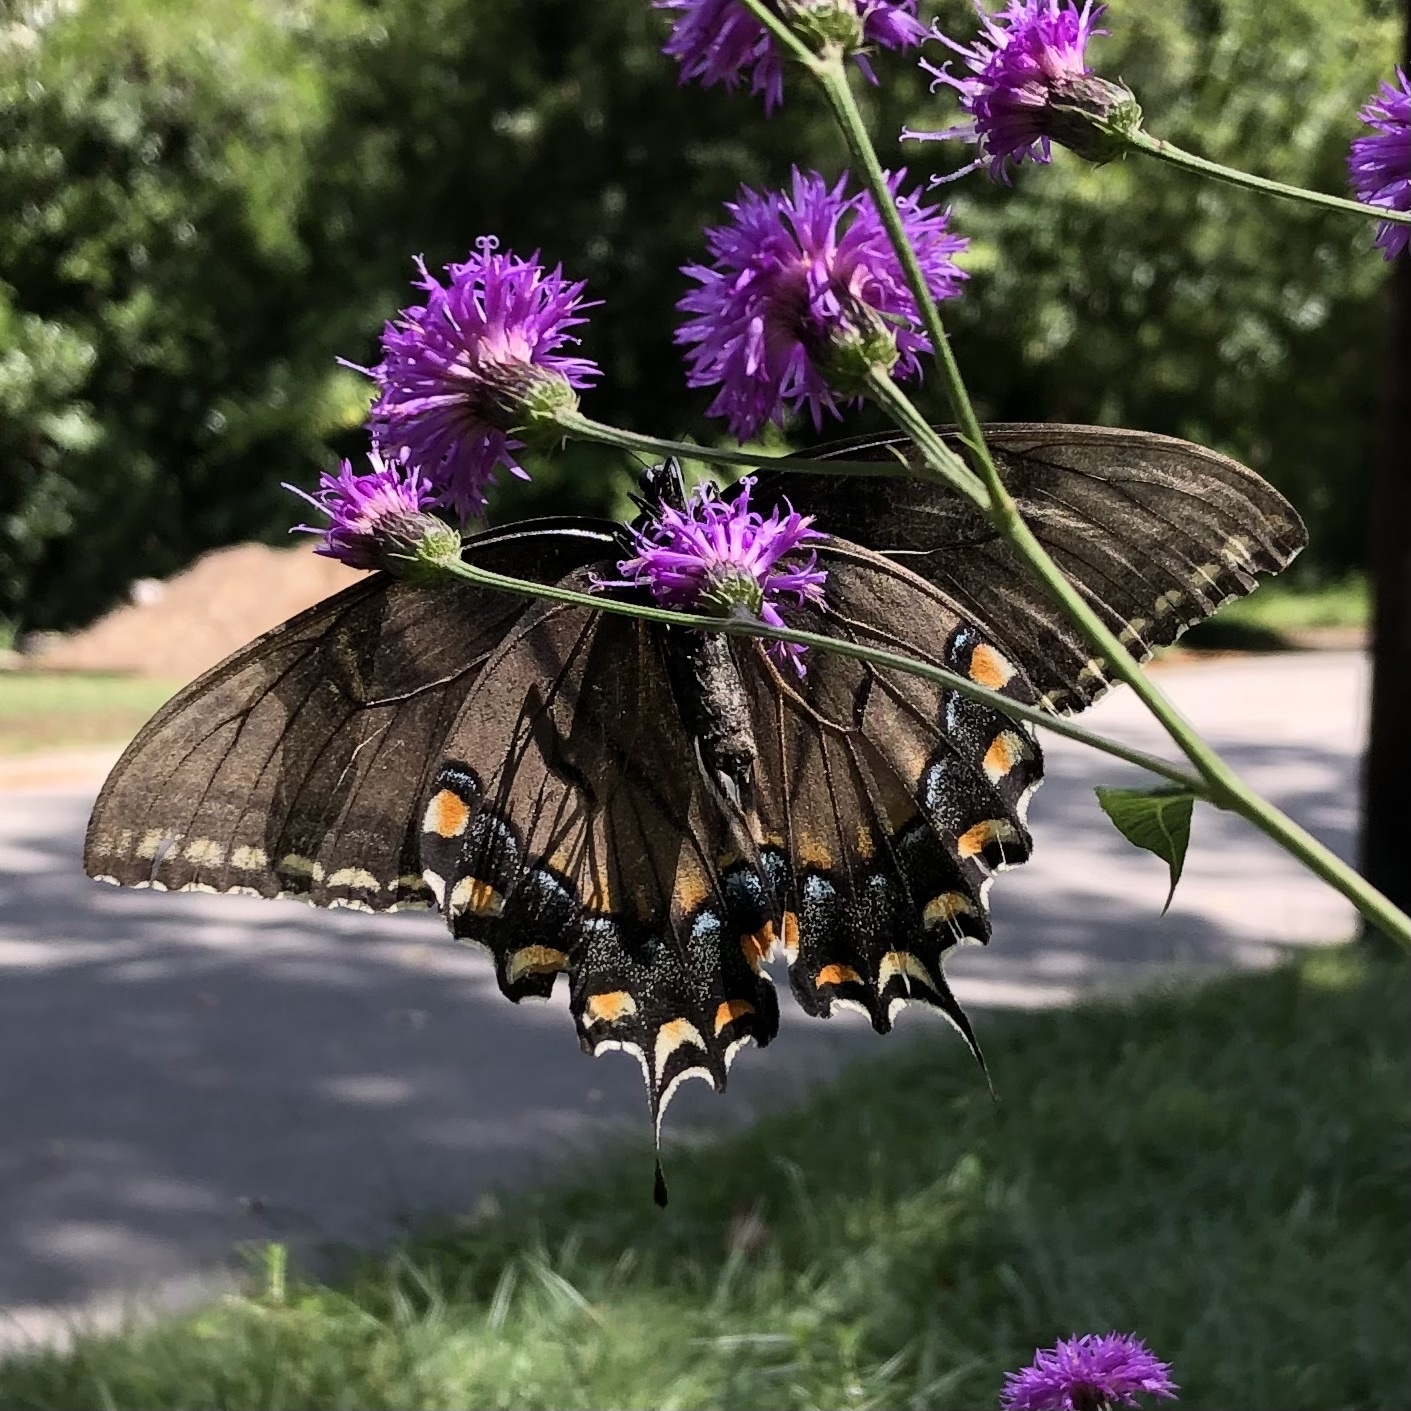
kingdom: Animalia
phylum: Arthropoda
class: Insecta
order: Lepidoptera
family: Papilionidae
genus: Papilio
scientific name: Papilio glaucus
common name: Tiger swallowtail
